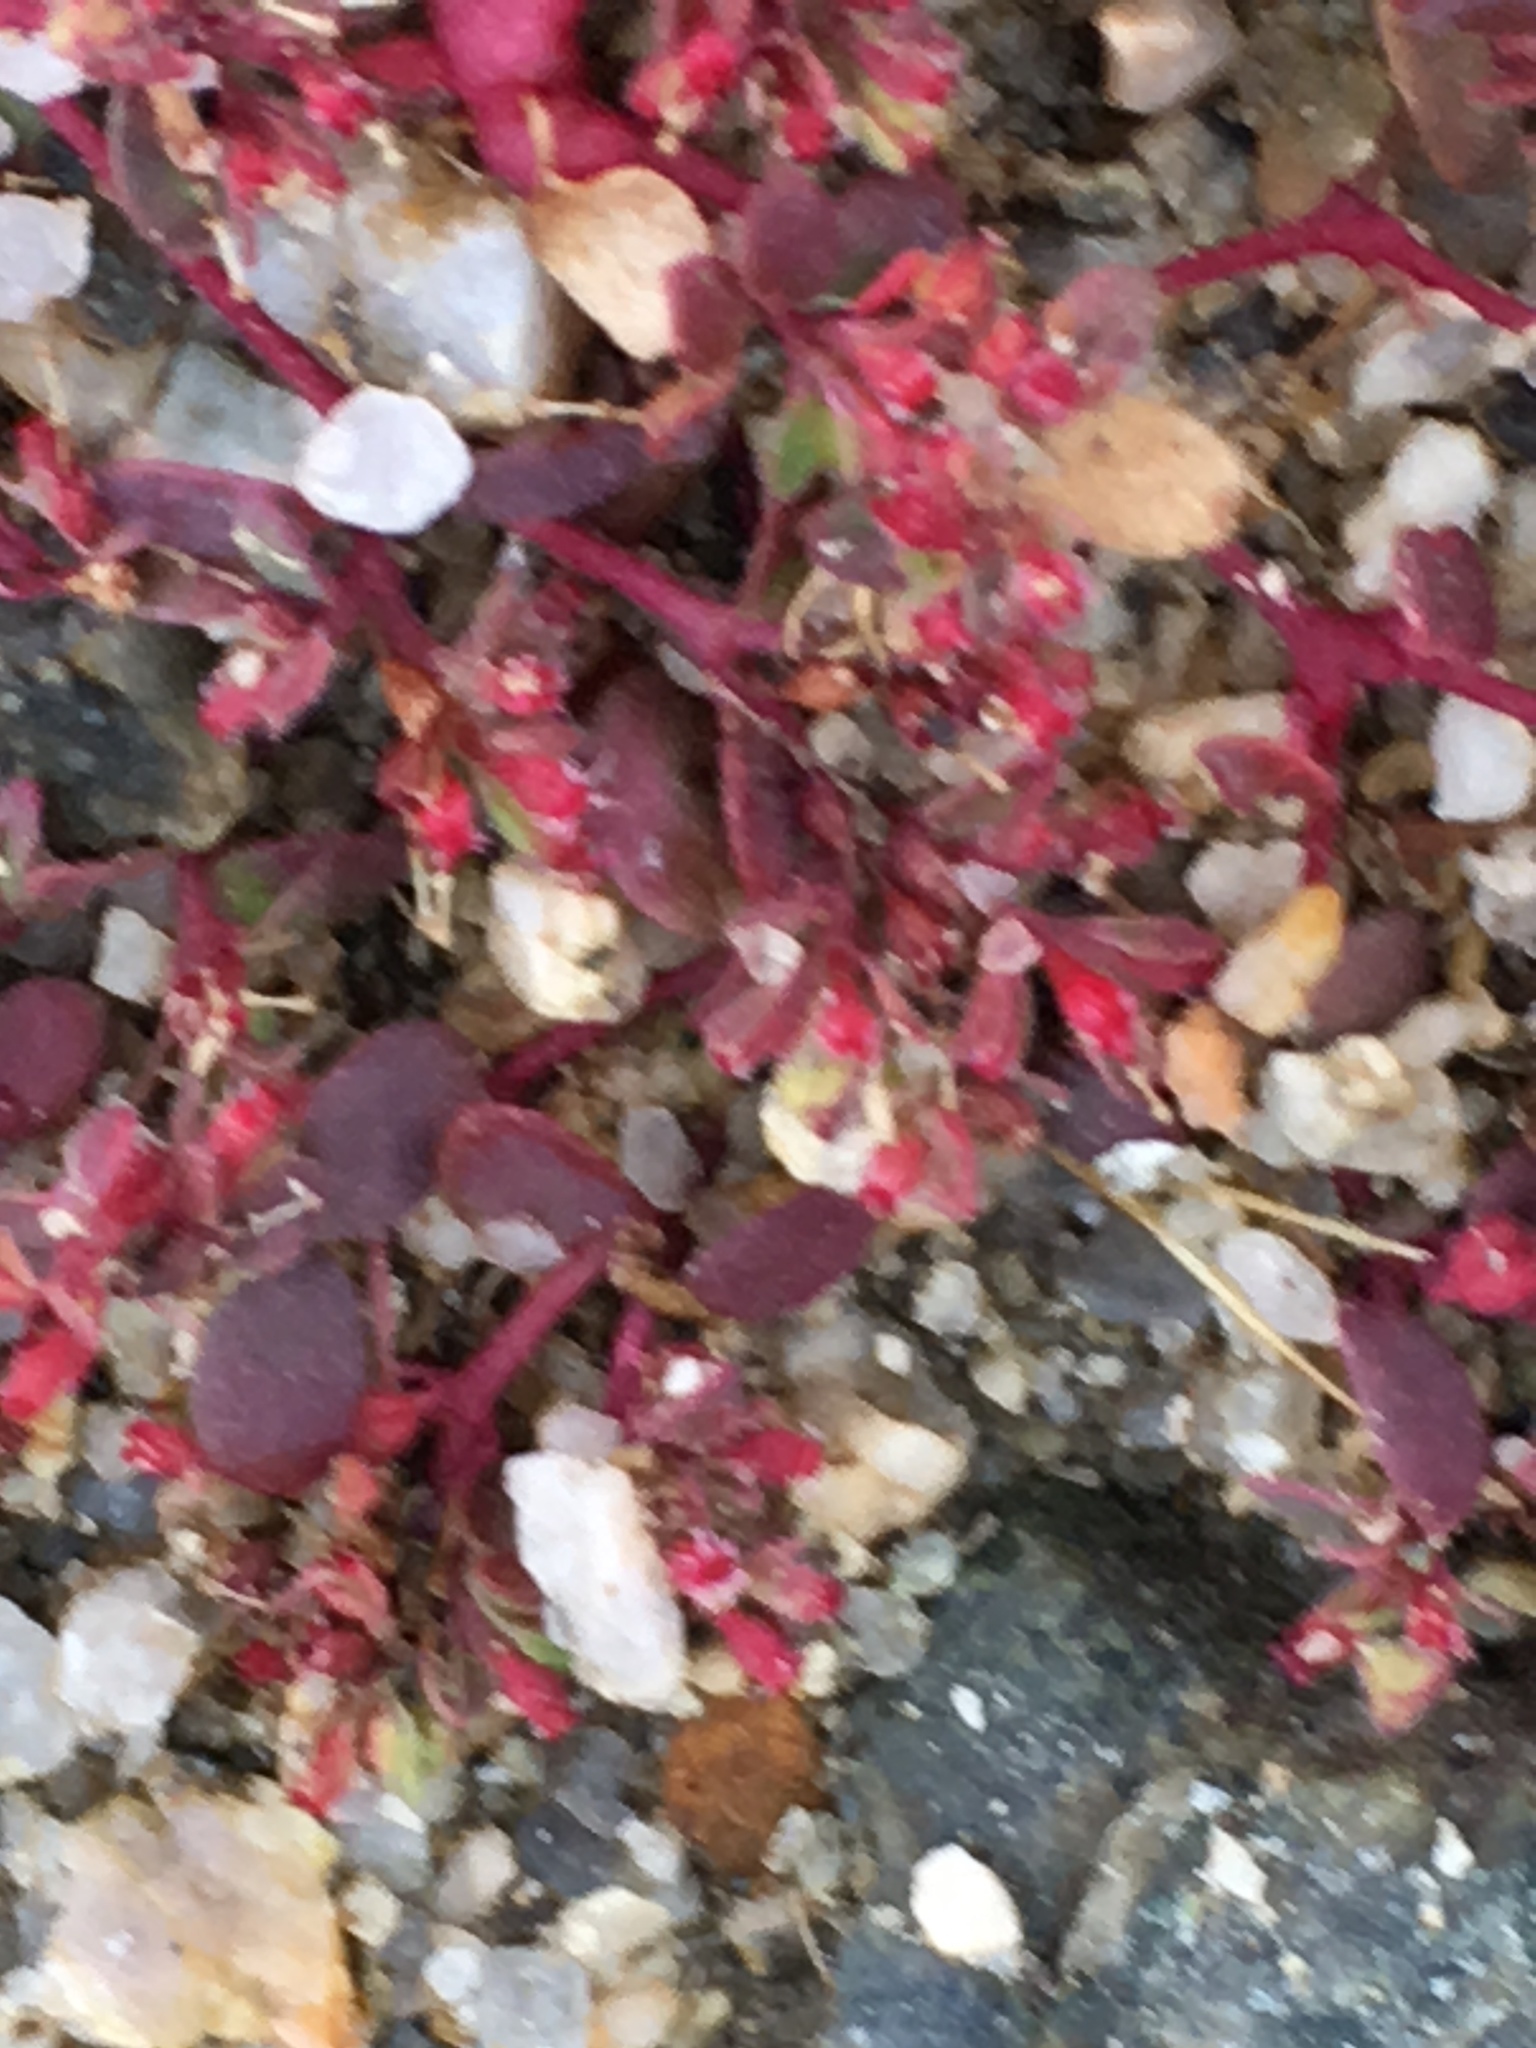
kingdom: Plantae
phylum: Tracheophyta
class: Magnoliopsida
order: Malpighiales
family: Euphorbiaceae
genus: Euphorbia
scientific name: Euphorbia setiloba
